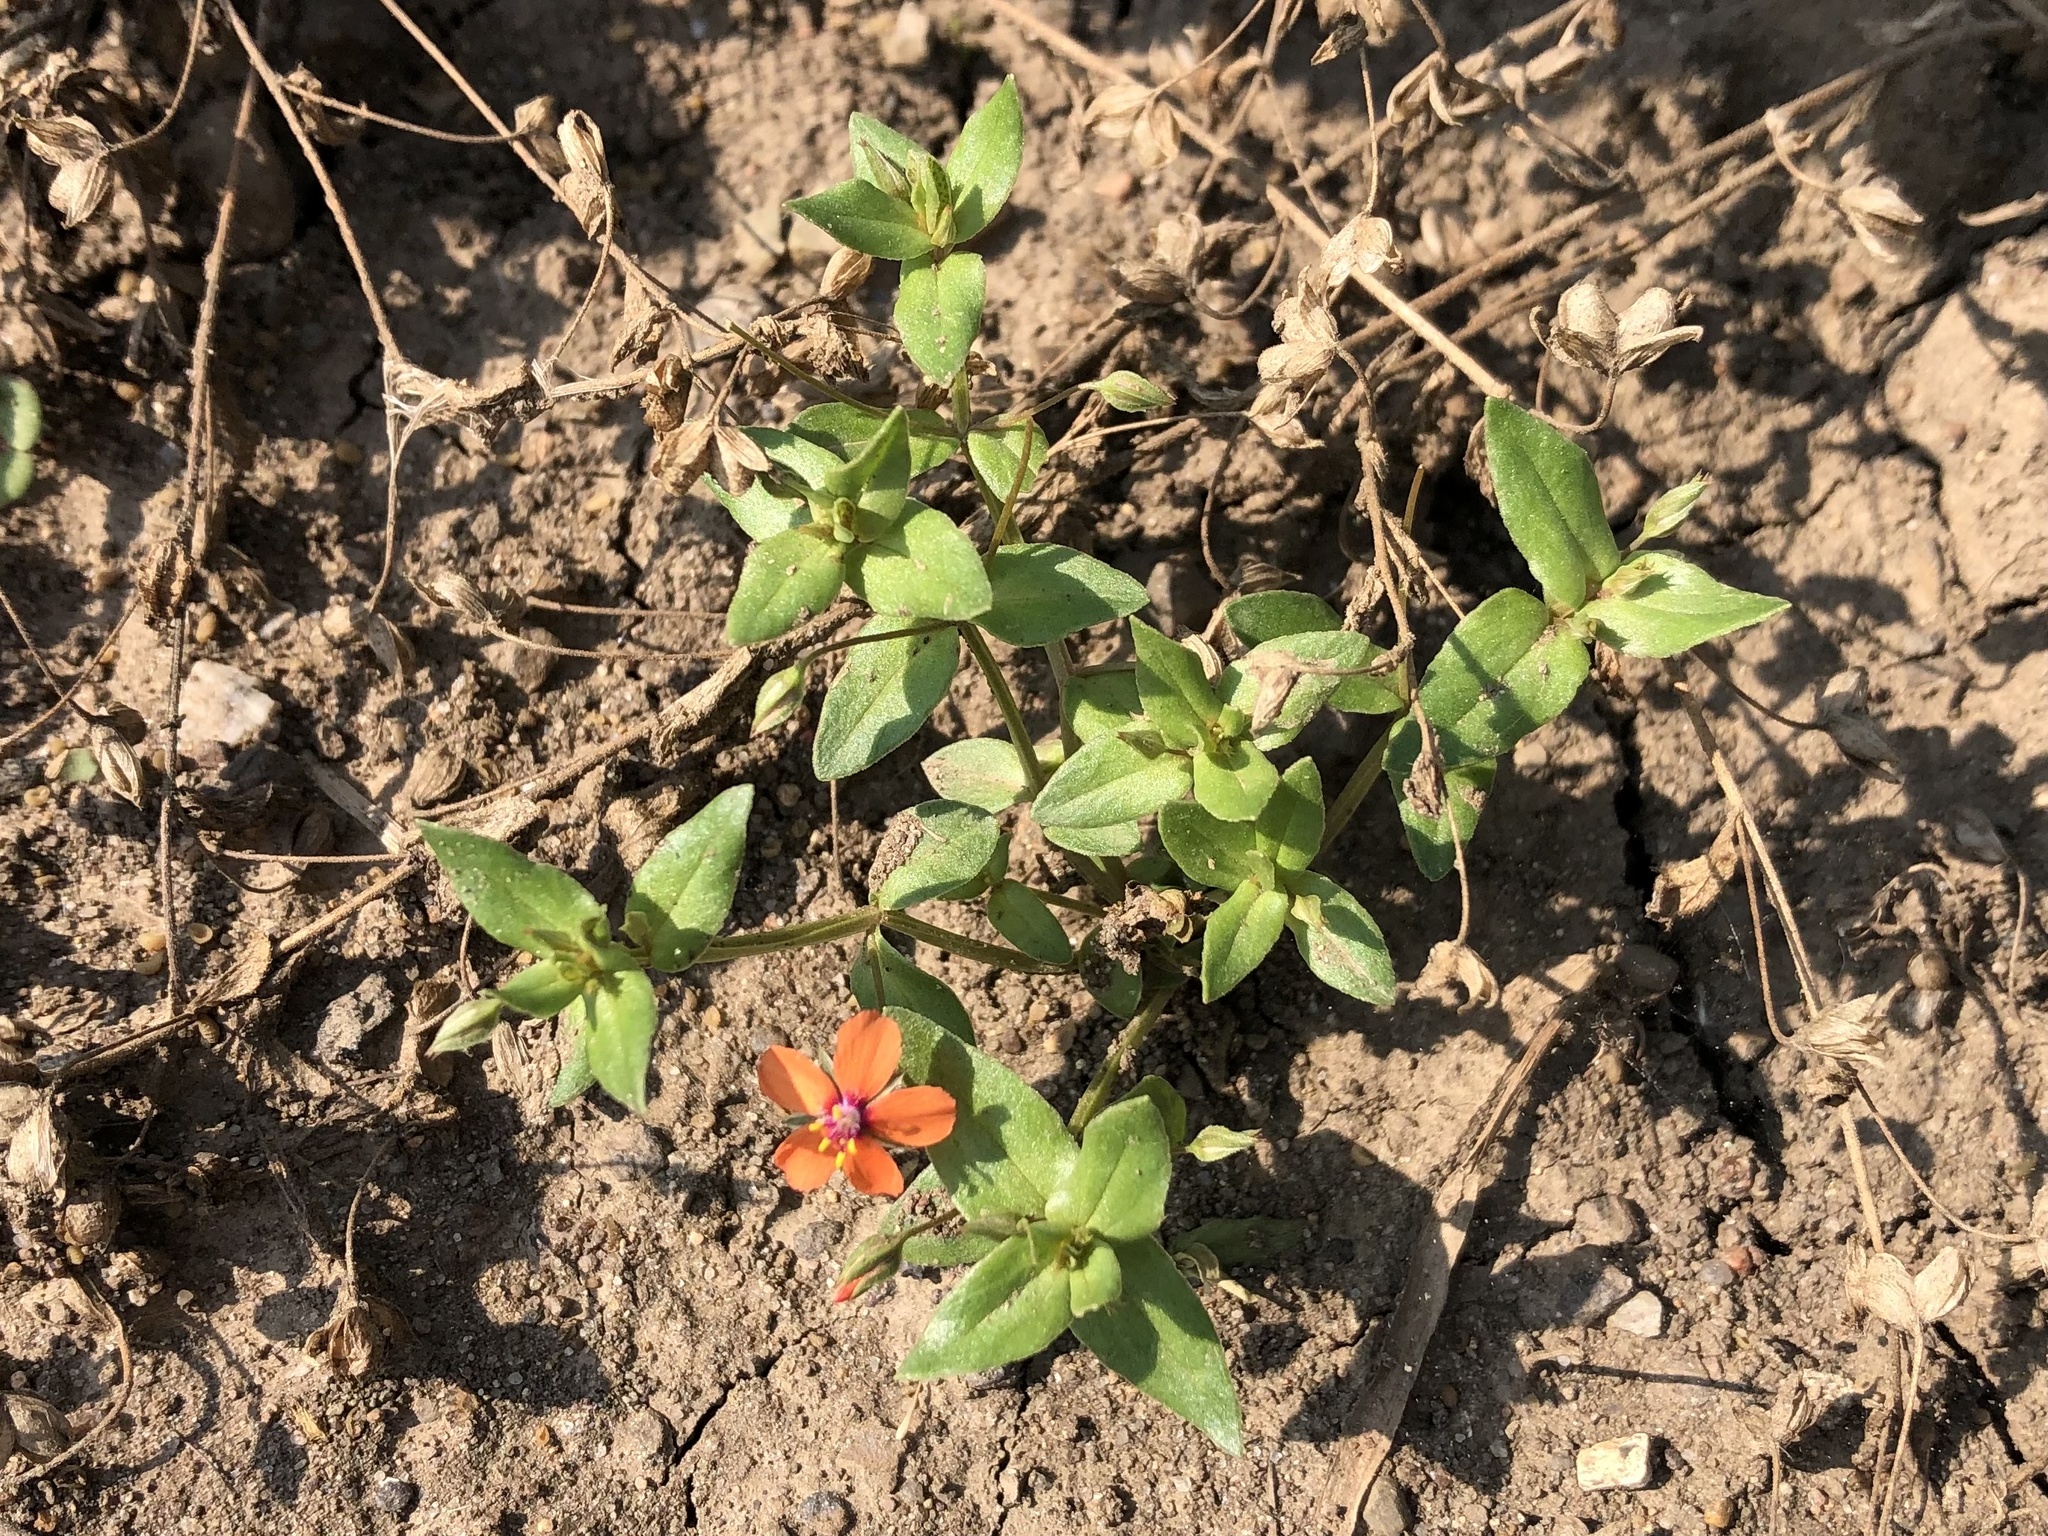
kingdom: Plantae
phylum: Tracheophyta
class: Magnoliopsida
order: Ericales
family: Primulaceae
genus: Lysimachia
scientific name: Lysimachia arvensis
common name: Scarlet pimpernel
